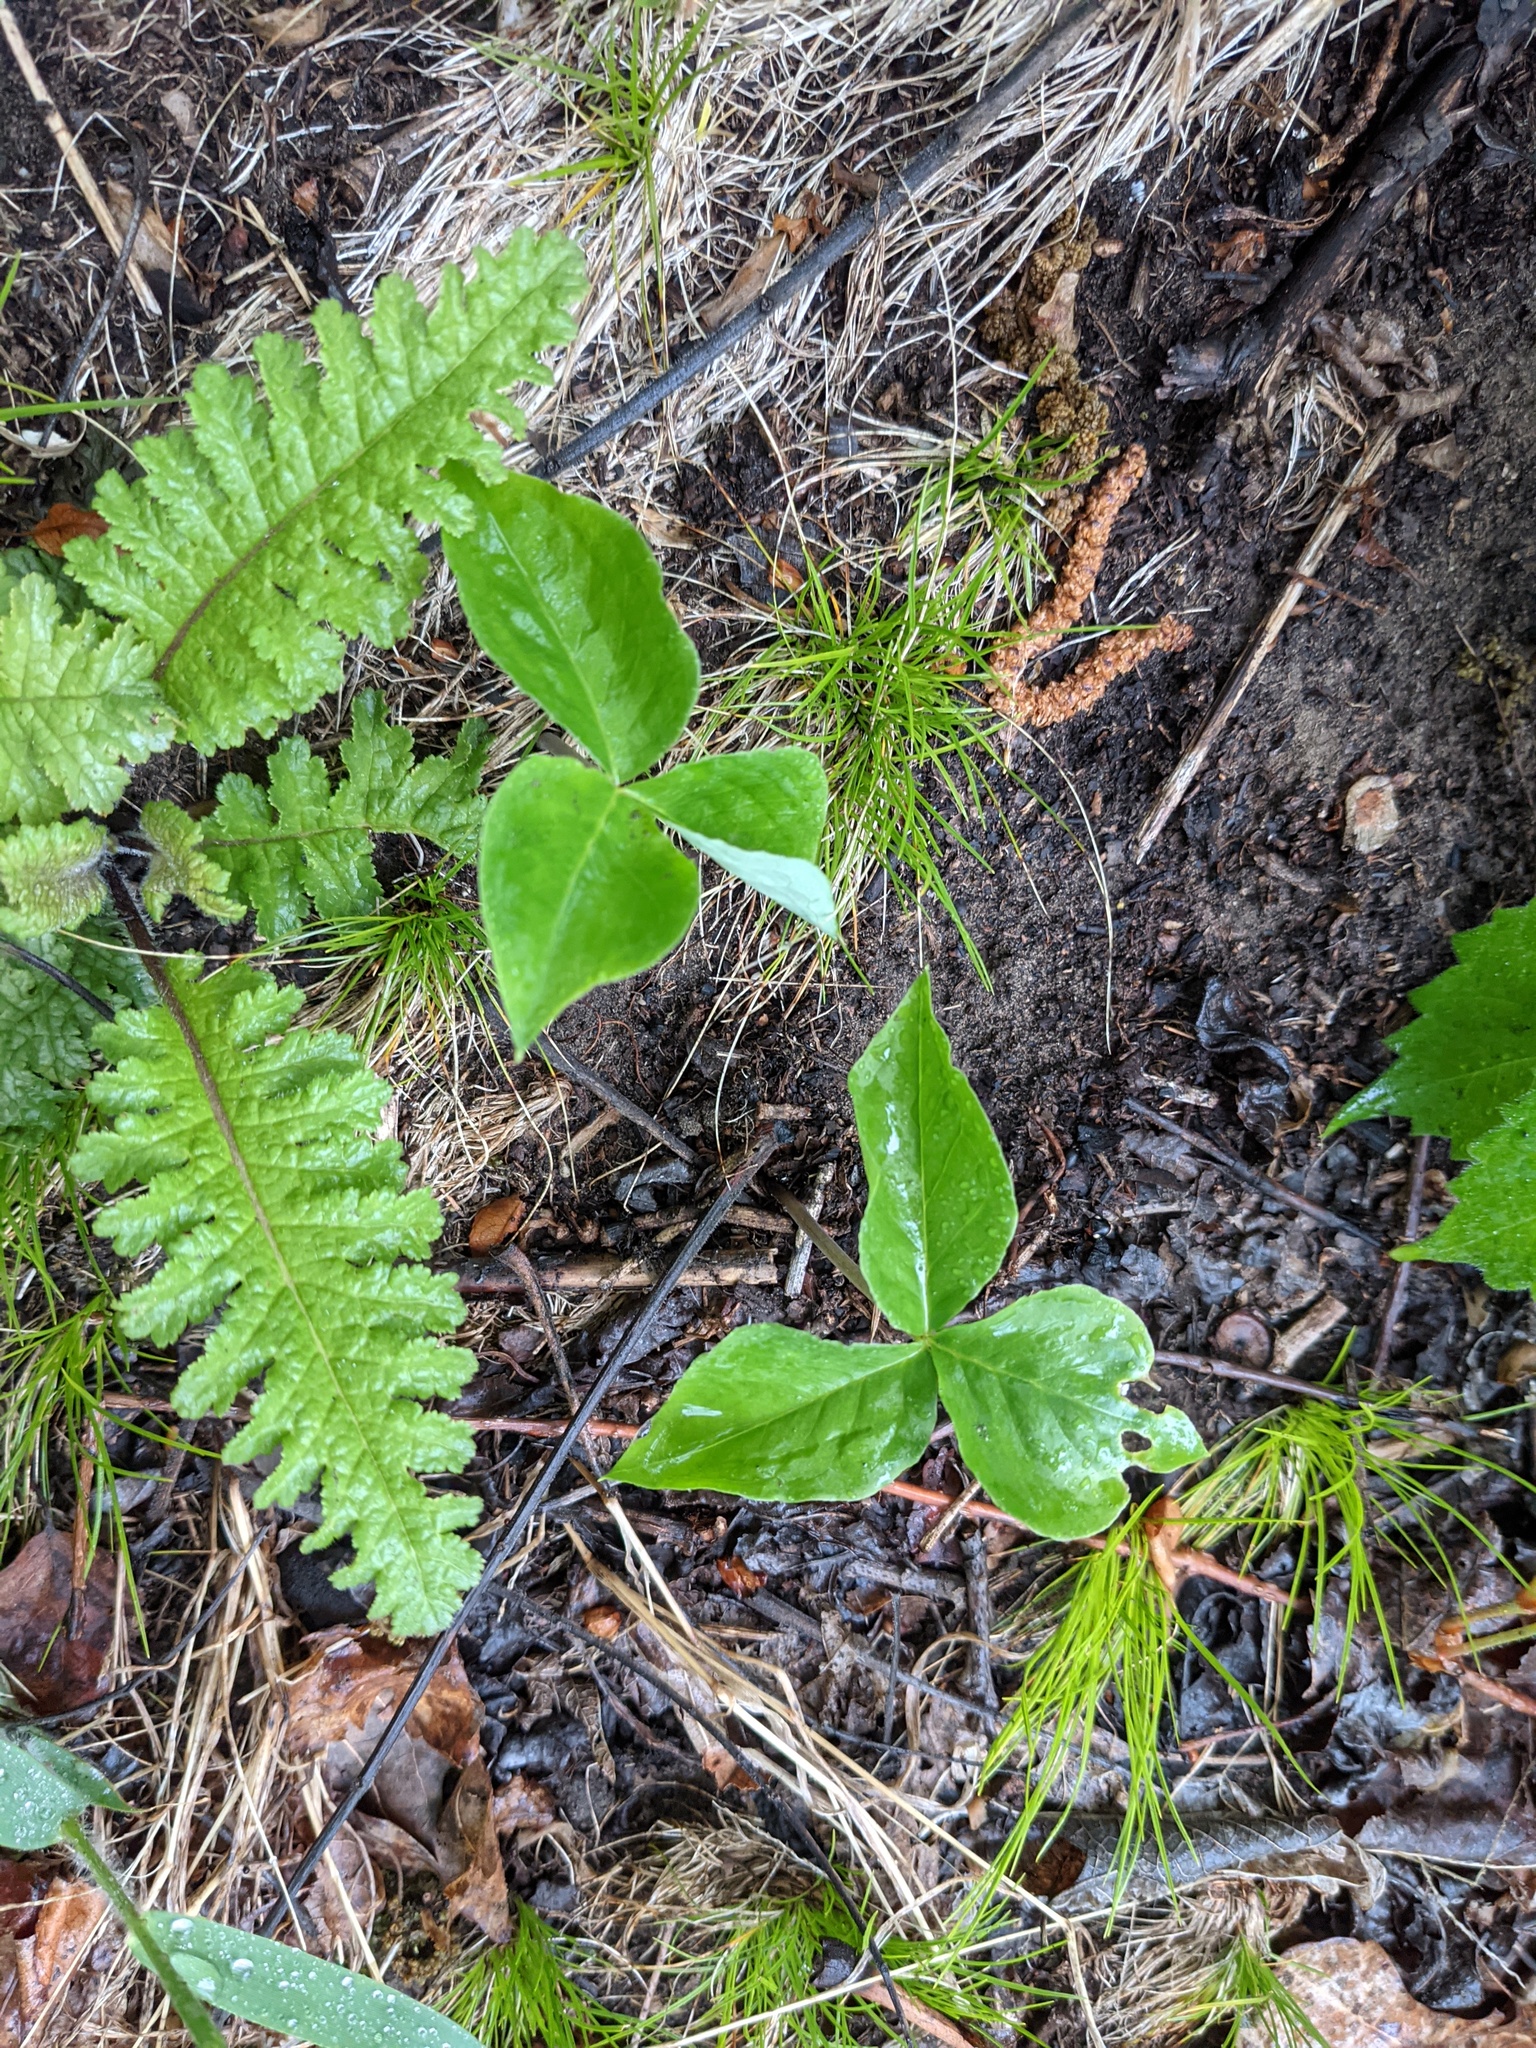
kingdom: Plantae
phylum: Tracheophyta
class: Liliopsida
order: Alismatales
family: Araceae
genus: Arisaema
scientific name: Arisaema triphyllum
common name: Jack-in-the-pulpit
